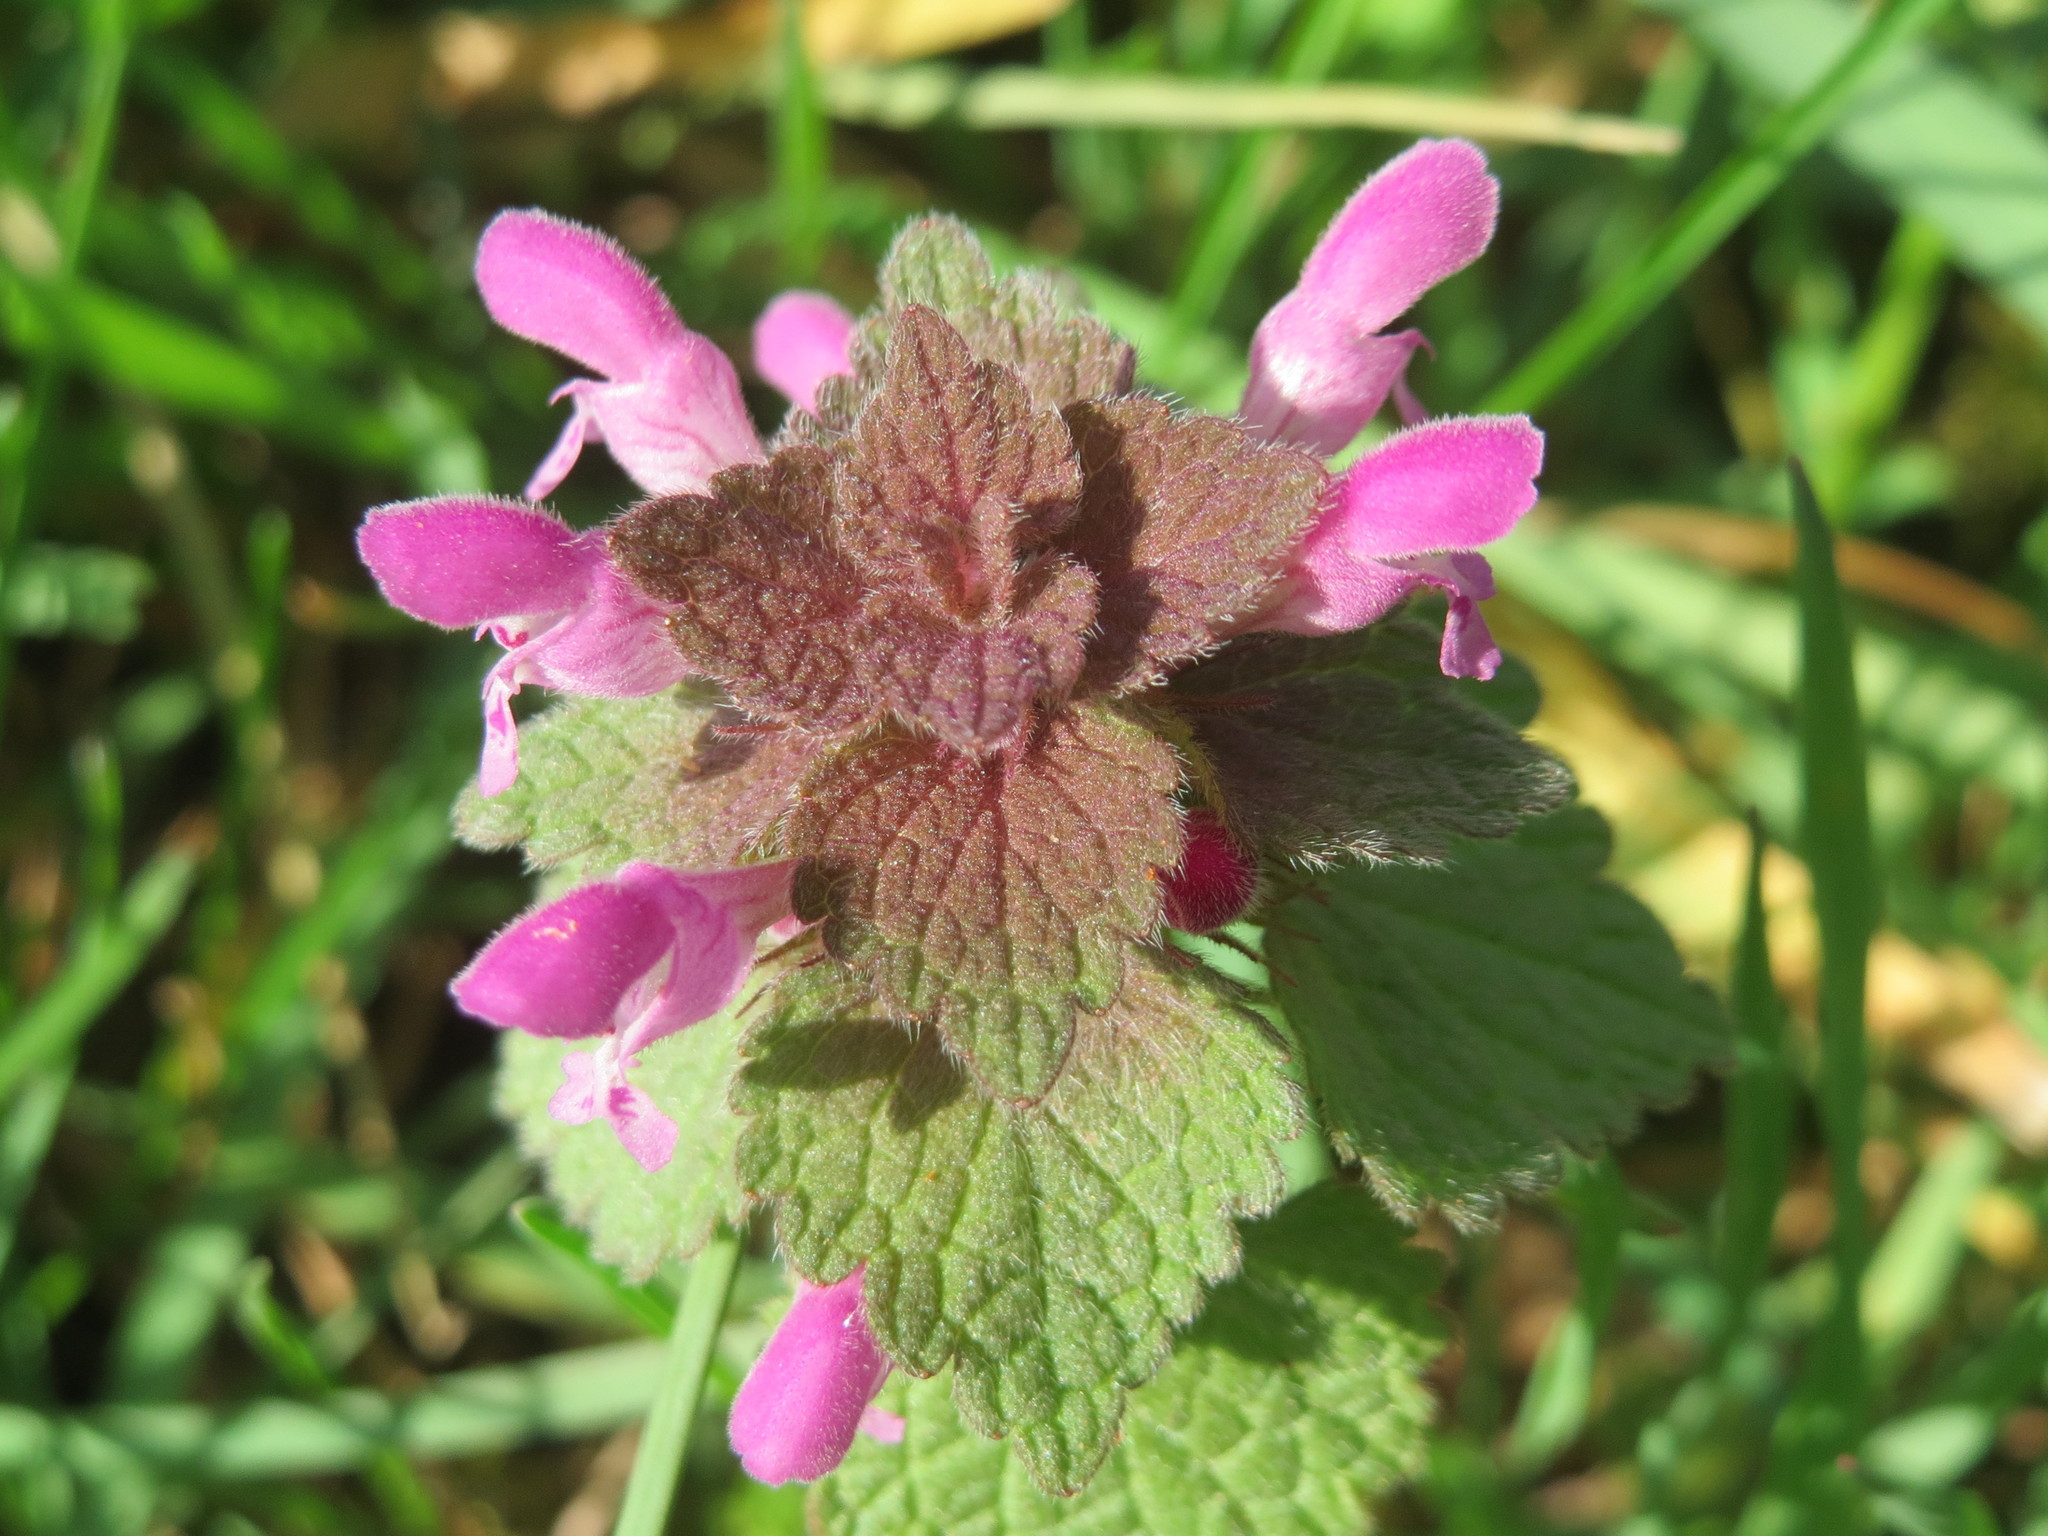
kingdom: Plantae
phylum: Tracheophyta
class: Magnoliopsida
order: Lamiales
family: Lamiaceae
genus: Lamium
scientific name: Lamium purpureum
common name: Red dead-nettle
